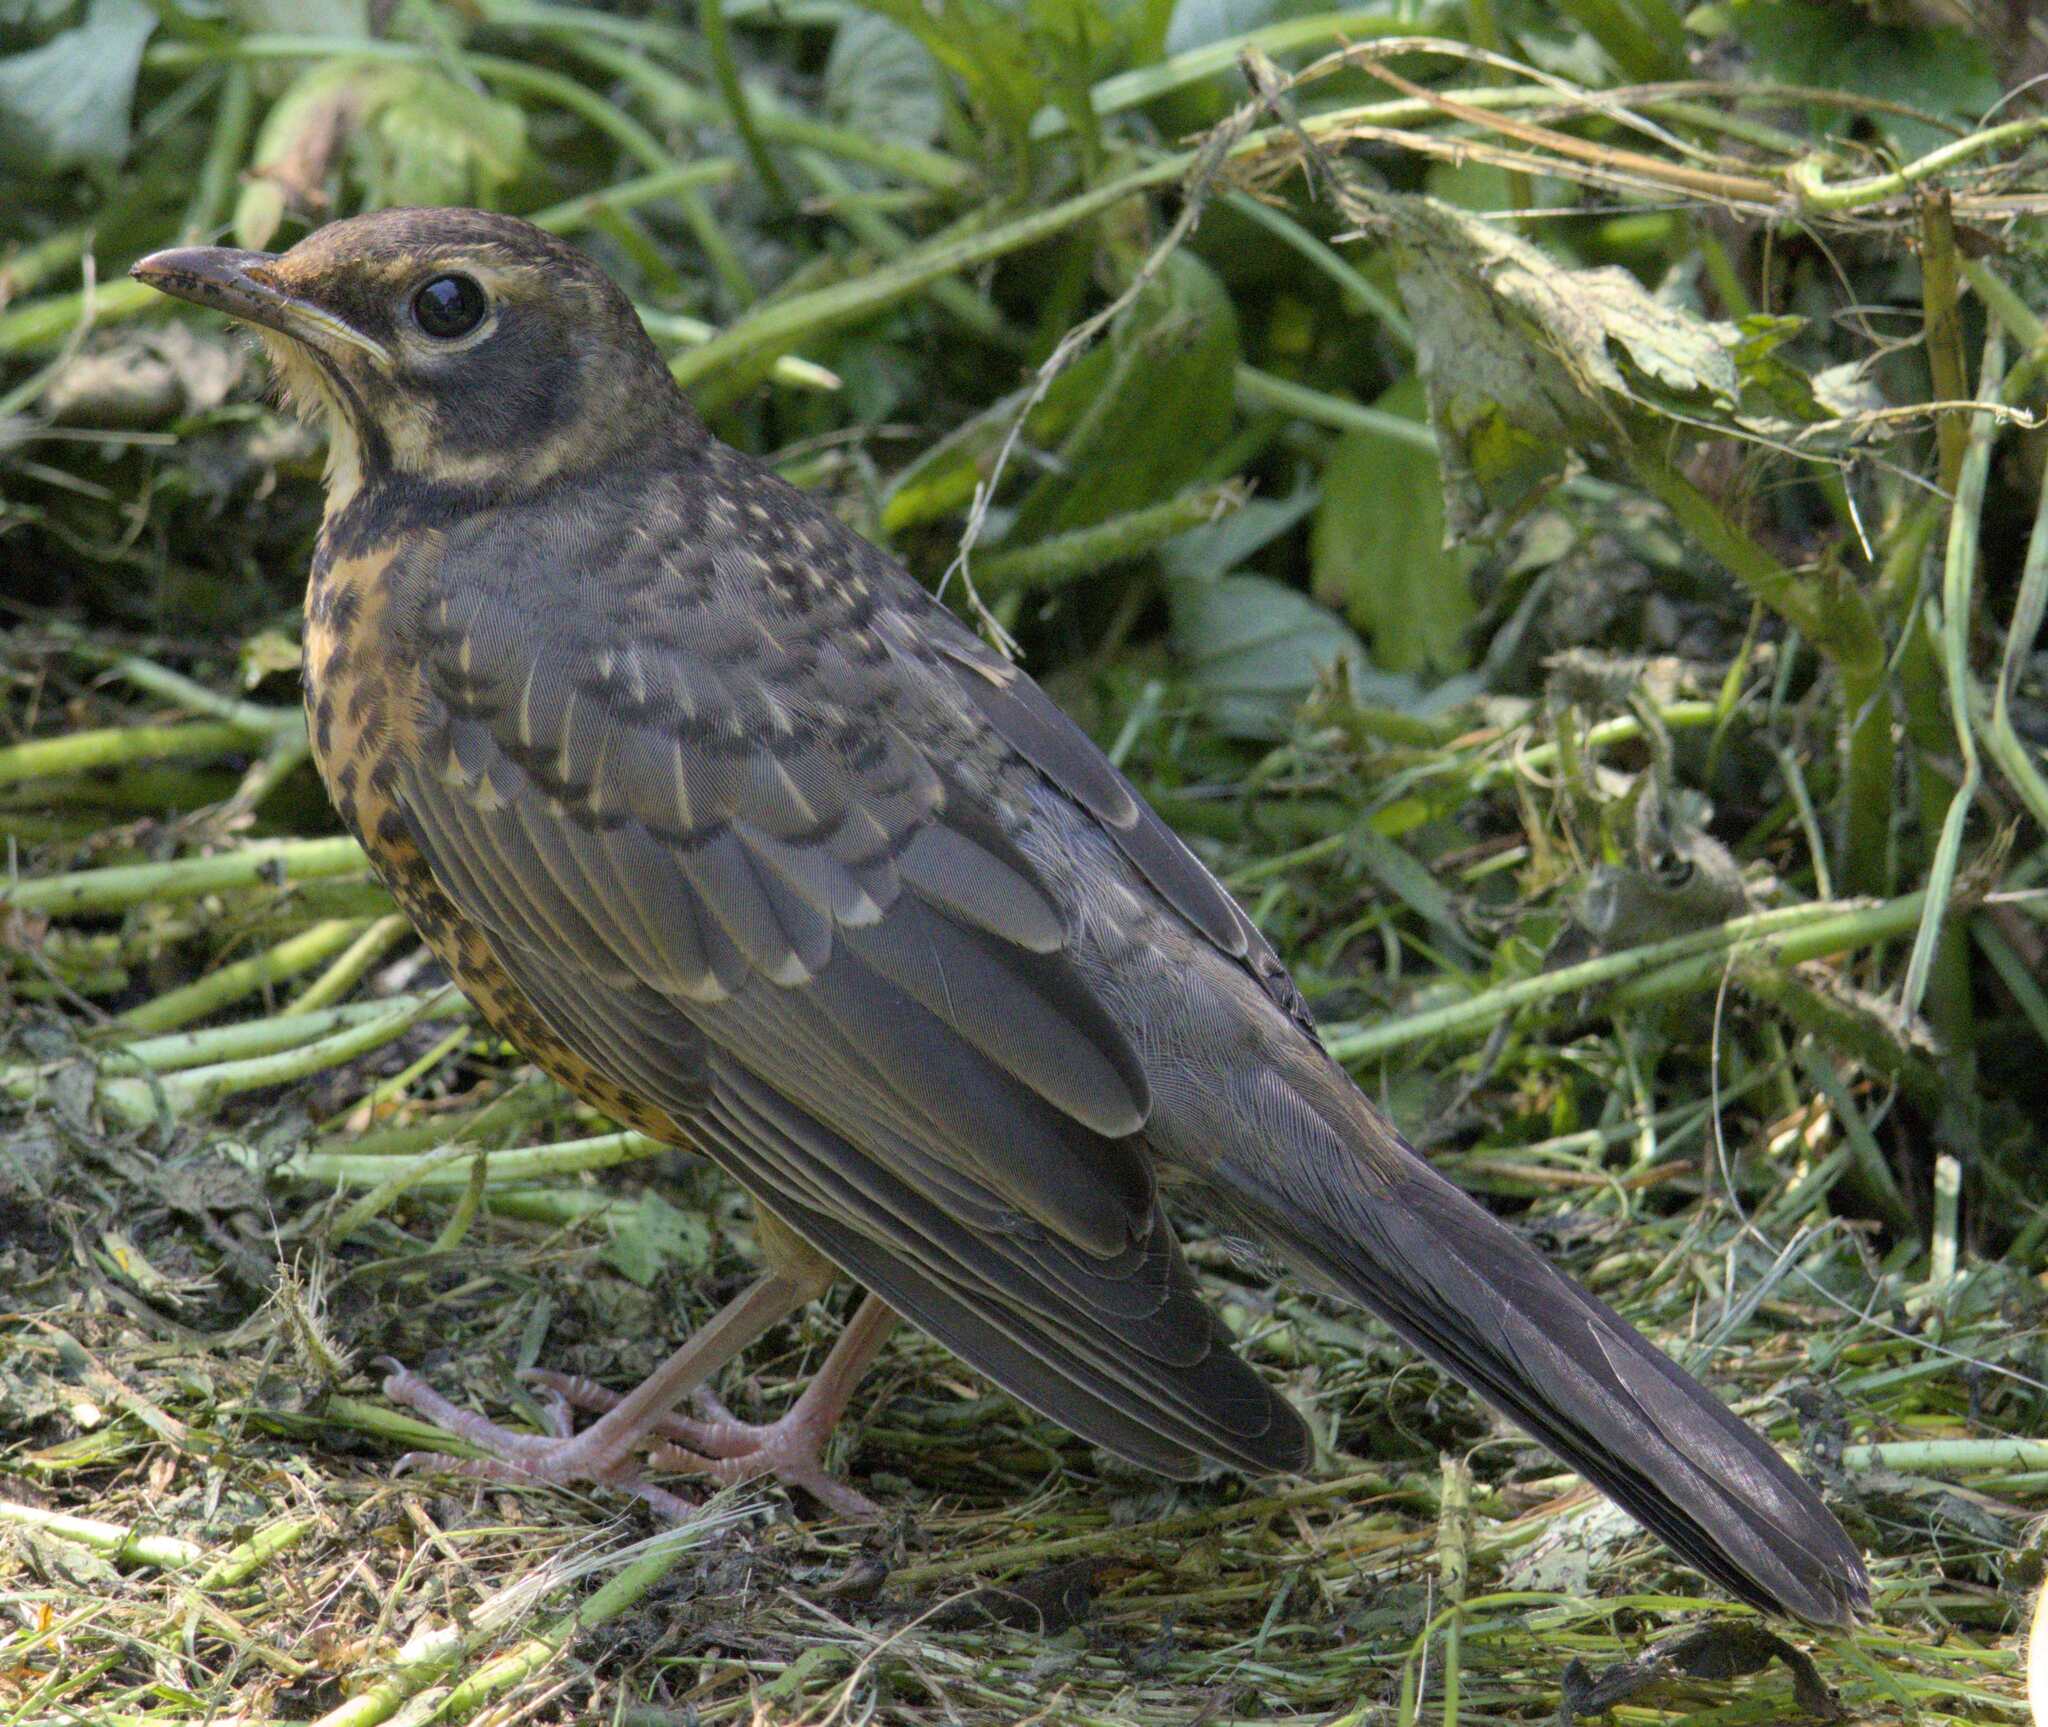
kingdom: Animalia
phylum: Chordata
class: Aves
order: Passeriformes
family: Turdidae
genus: Turdus
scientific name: Turdus migratorius
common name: American robin
